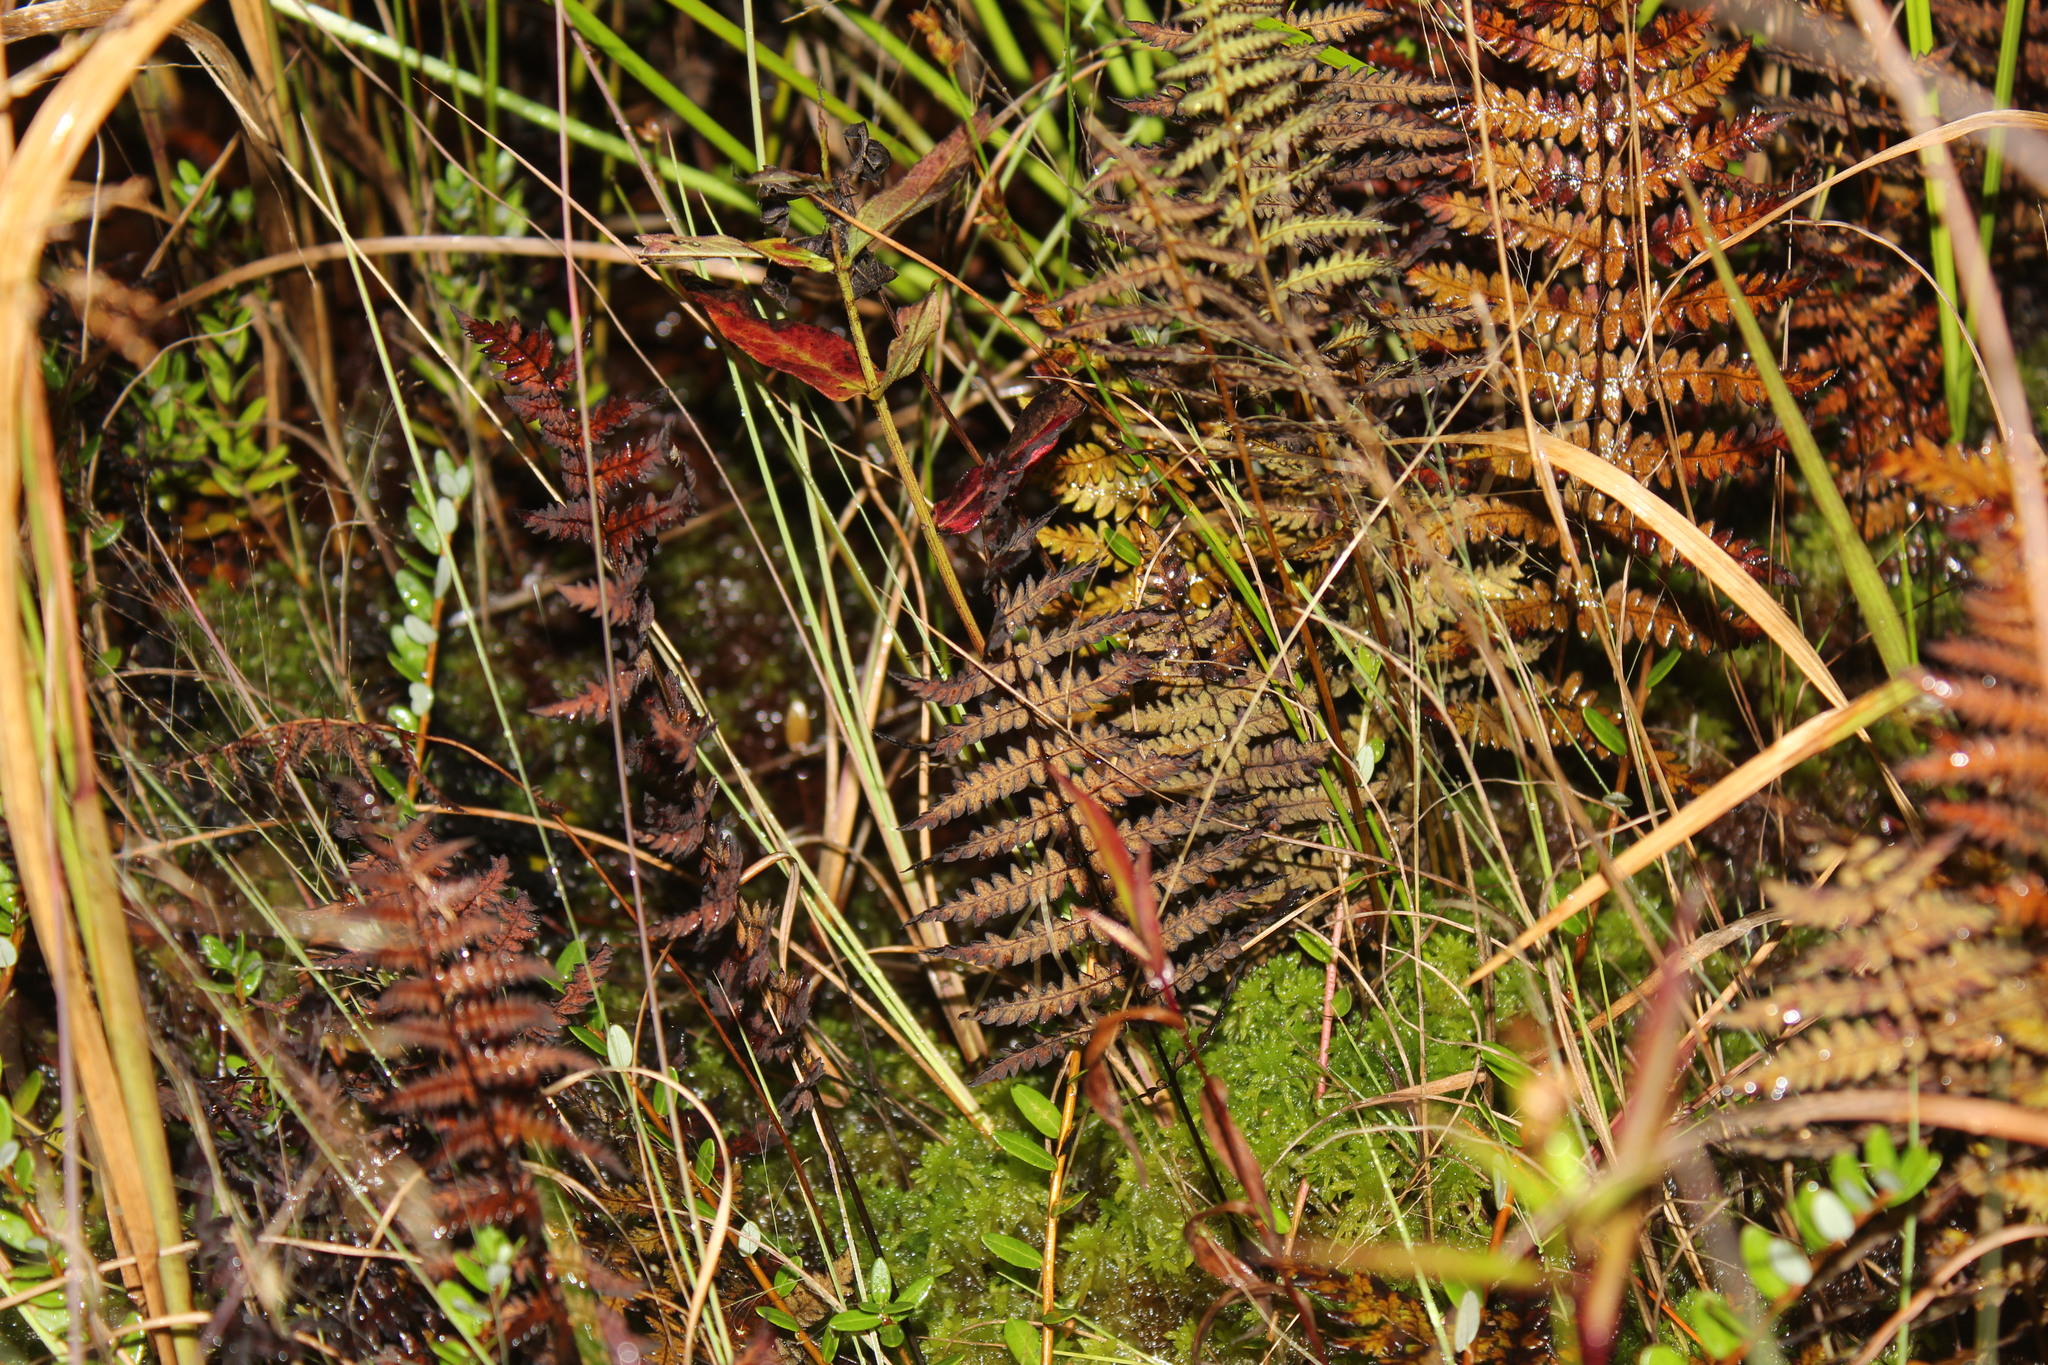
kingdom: Plantae
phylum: Tracheophyta
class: Polypodiopsida
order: Polypodiales
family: Thelypteridaceae
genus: Thelypteris
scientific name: Thelypteris palustris
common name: Marsh fern
